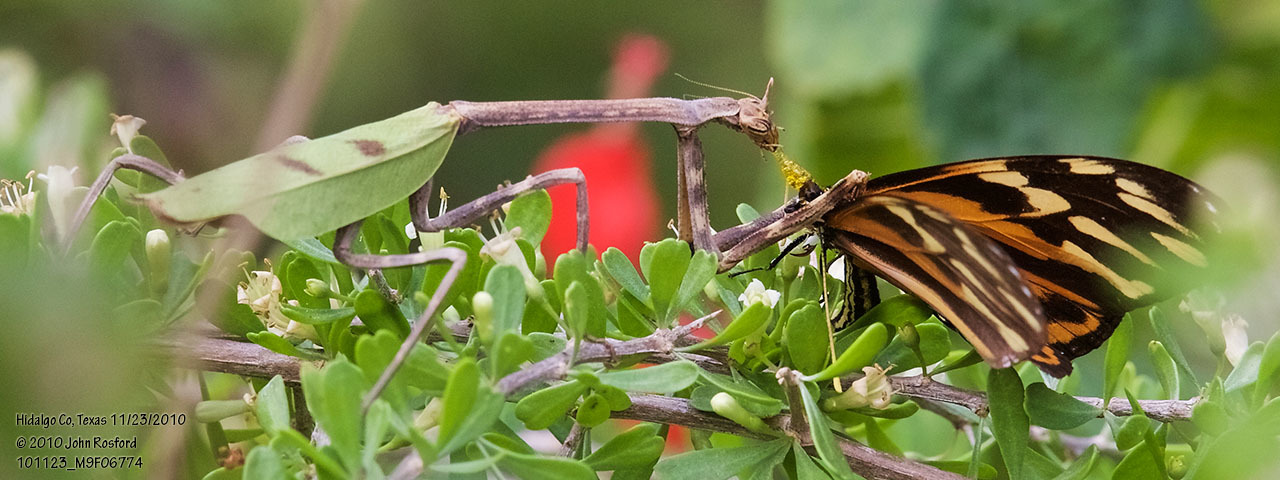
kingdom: Animalia
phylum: Arthropoda
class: Insecta
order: Mantodea
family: Mantidae
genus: Pseudovates
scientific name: Pseudovates chlorophaea
